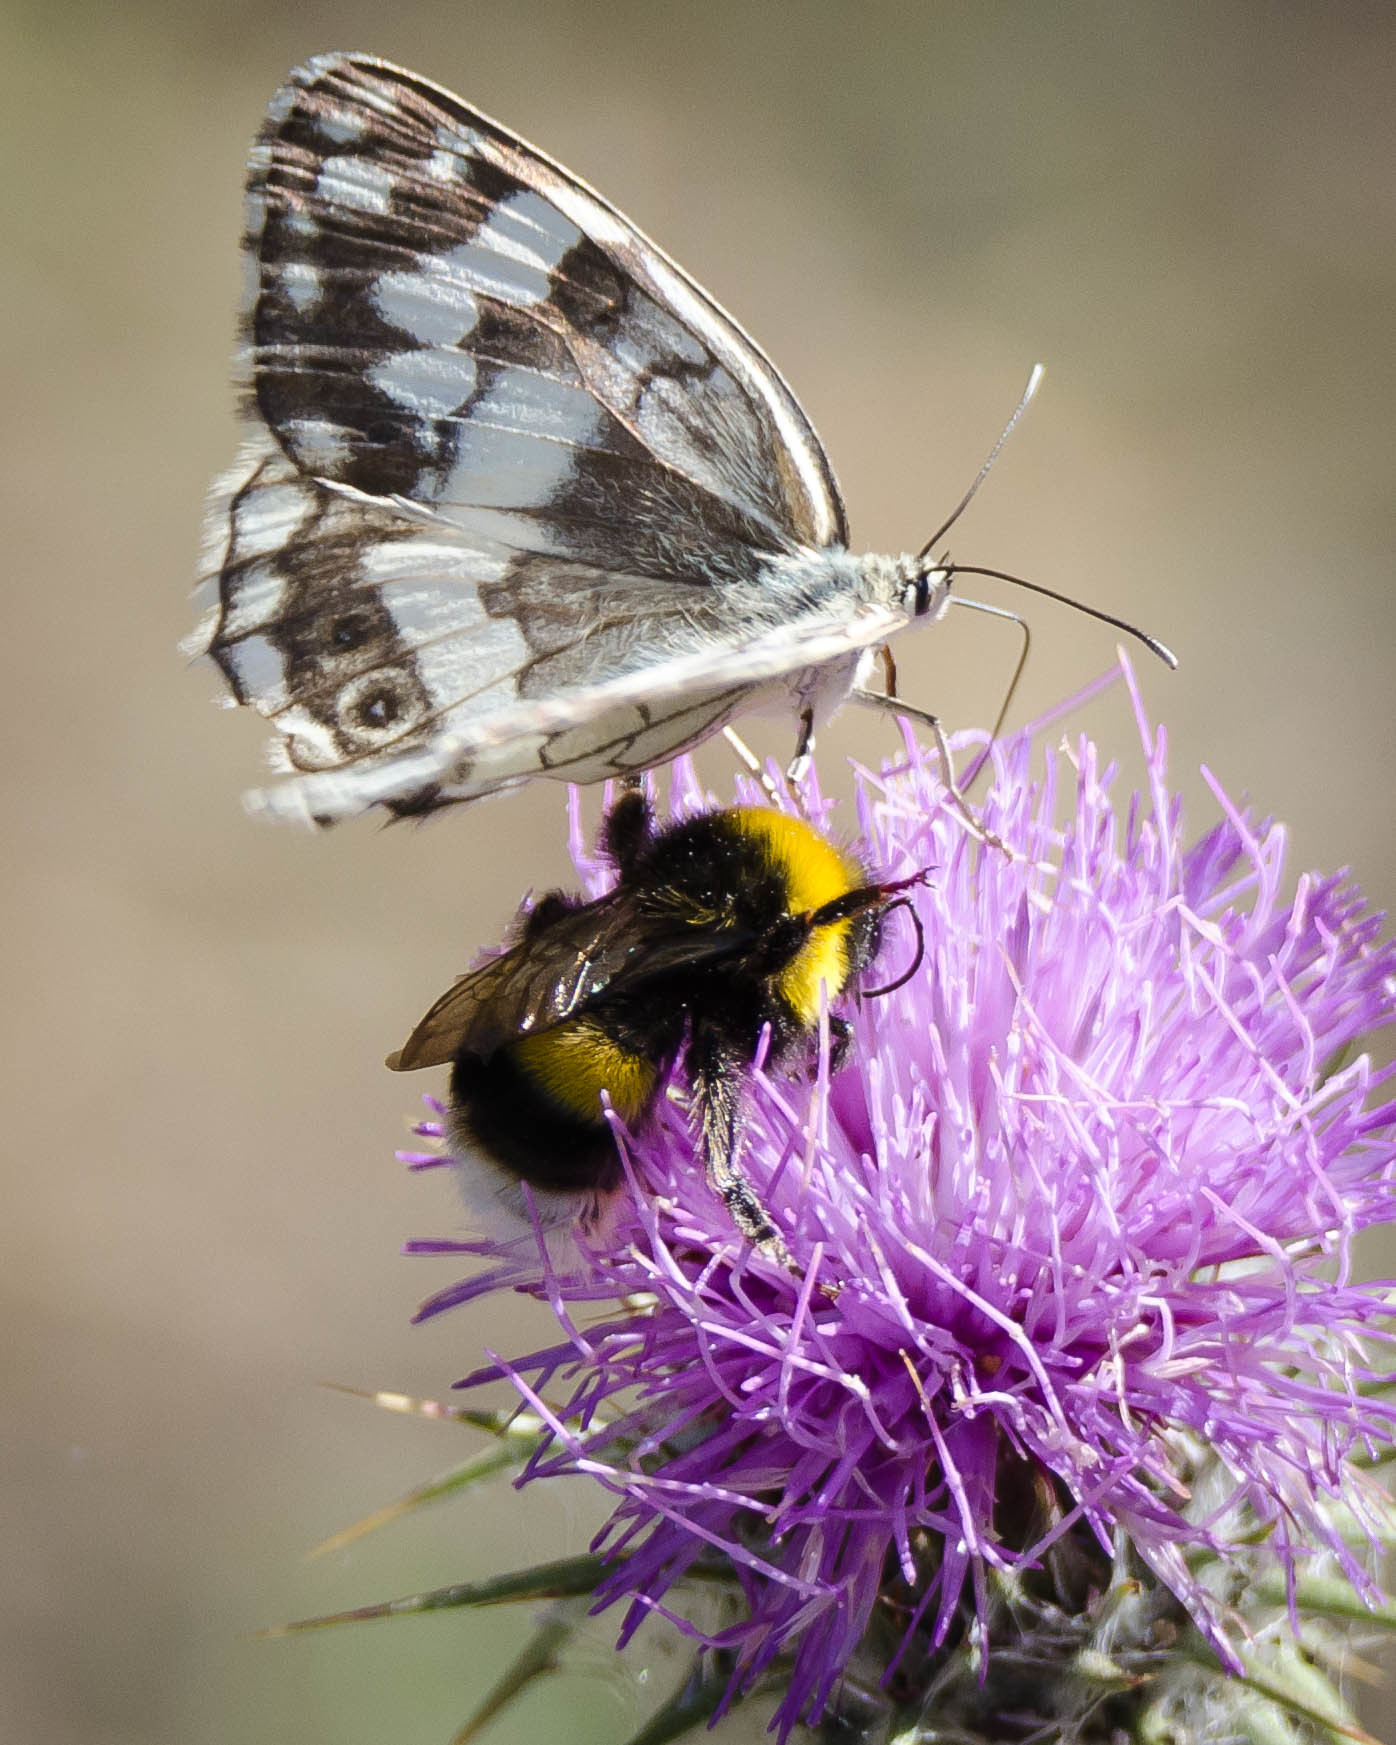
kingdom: Animalia
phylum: Arthropoda
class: Insecta
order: Lepidoptera
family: Nymphalidae
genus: Melanargia
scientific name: Melanargia larissa
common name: Balkan marbled white
